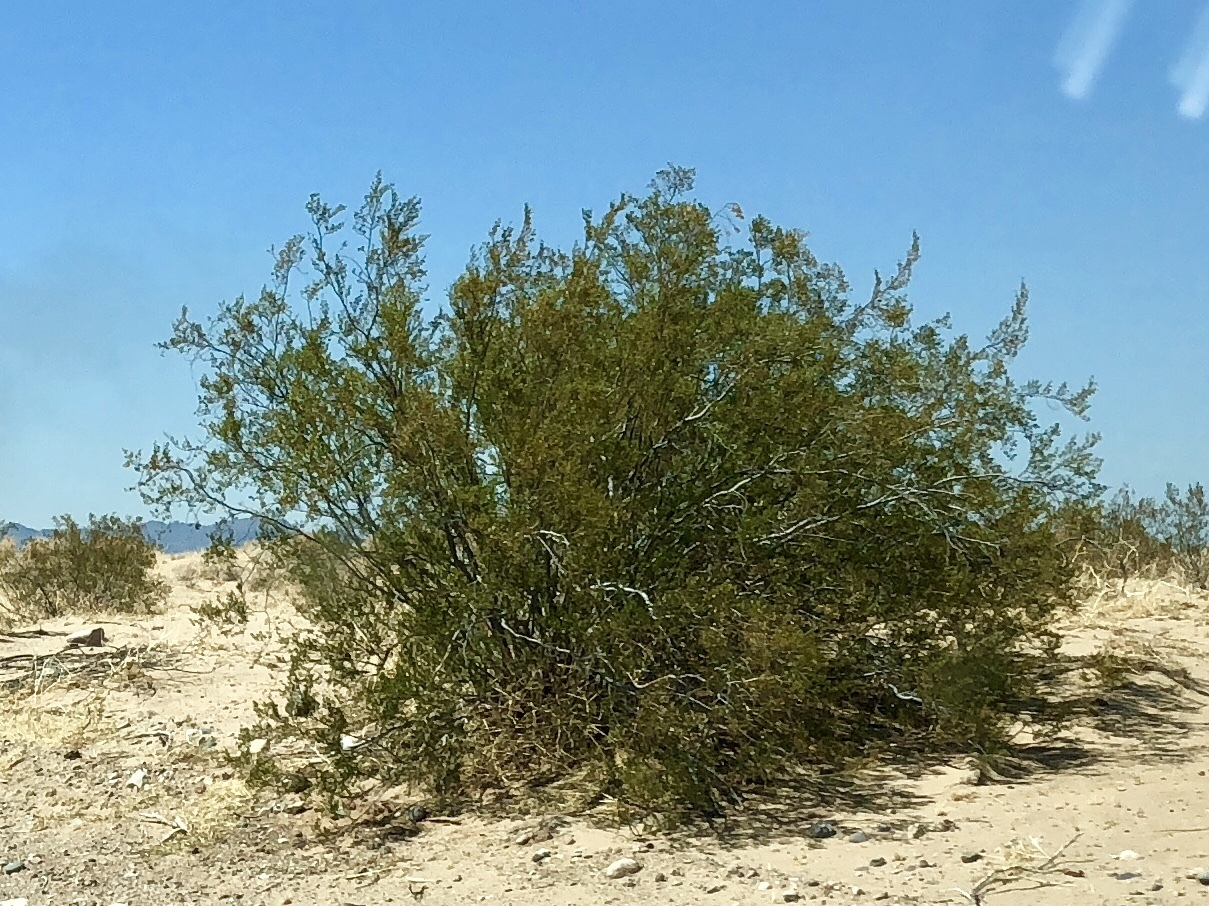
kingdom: Plantae
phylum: Tracheophyta
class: Magnoliopsida
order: Zygophyllales
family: Zygophyllaceae
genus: Larrea
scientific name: Larrea tridentata
